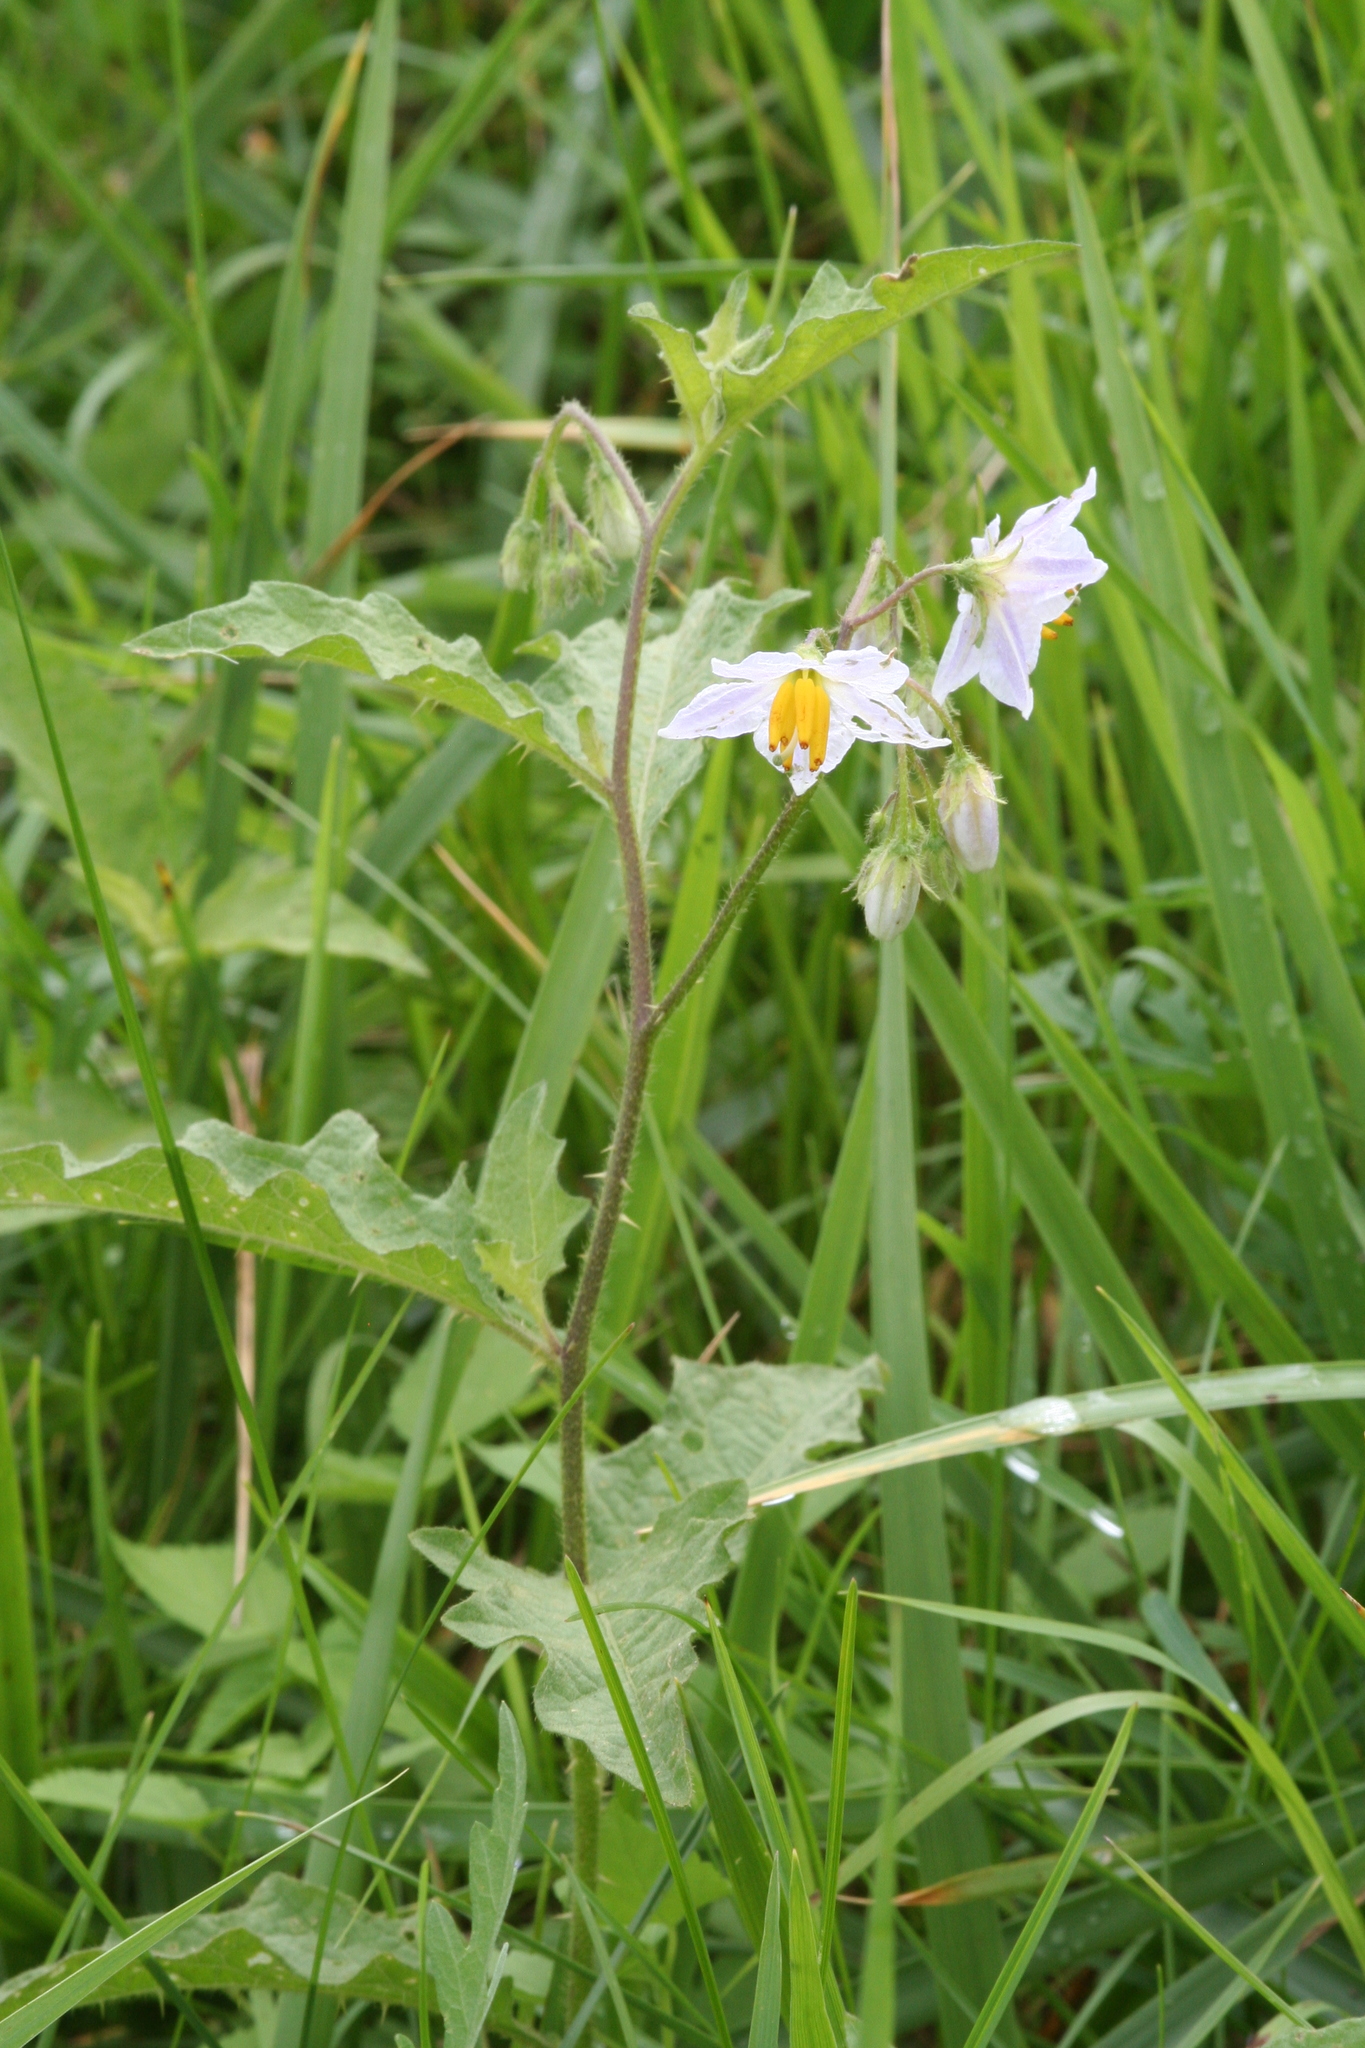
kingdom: Plantae
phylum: Tracheophyta
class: Magnoliopsida
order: Solanales
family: Solanaceae
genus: Solanum
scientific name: Solanum carolinense
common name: Horse-nettle
